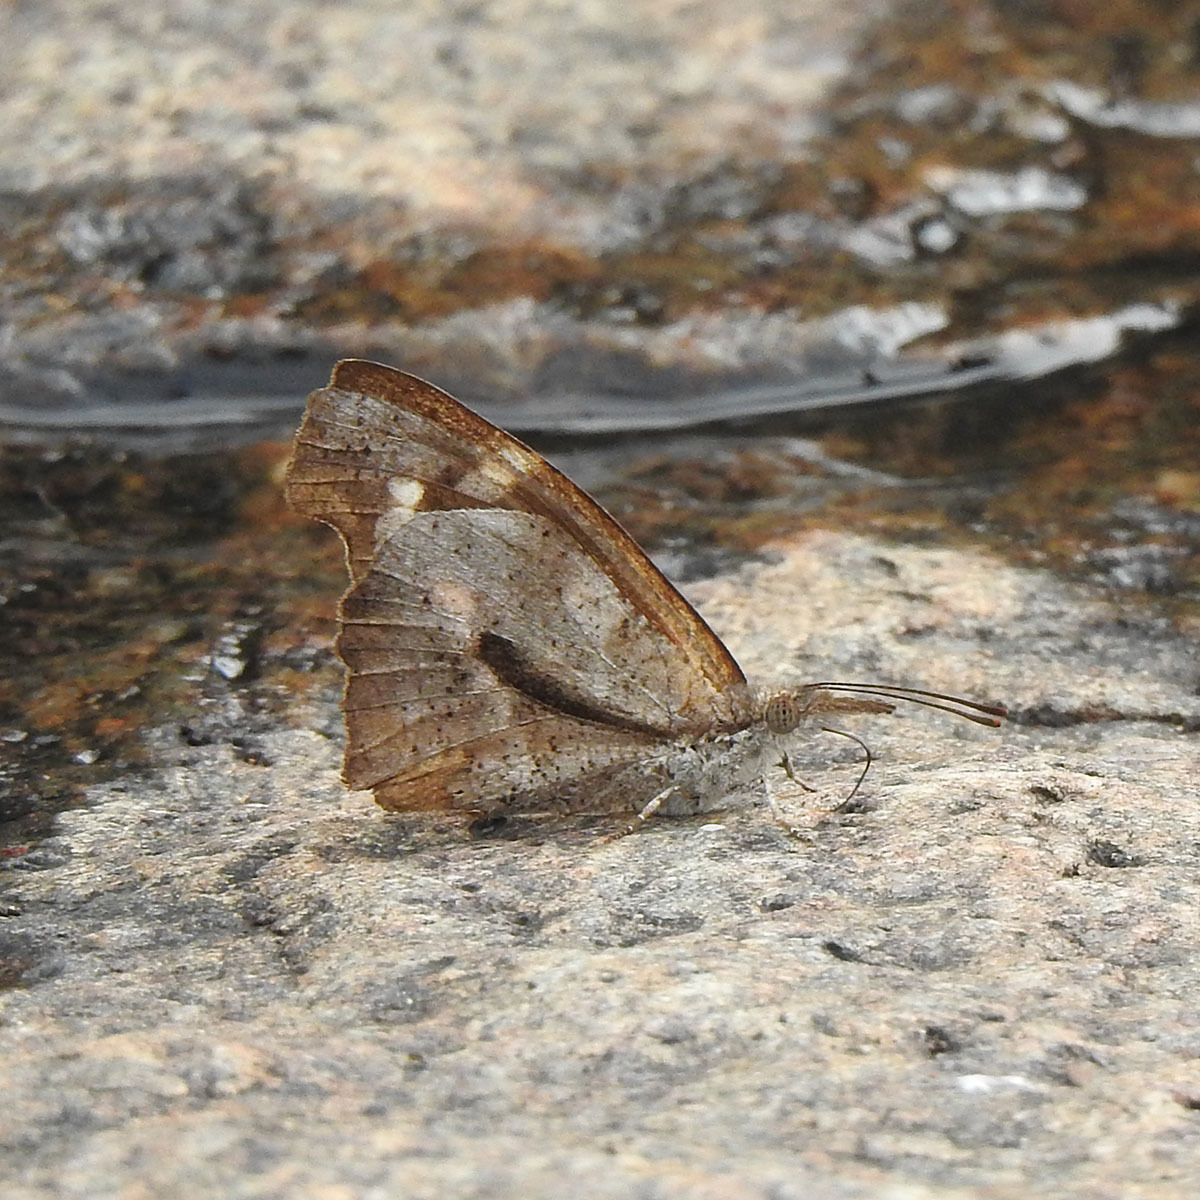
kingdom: Animalia
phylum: Arthropoda
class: Insecta
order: Lepidoptera
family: Nymphalidae
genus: Libythea
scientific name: Libythea myrrha
